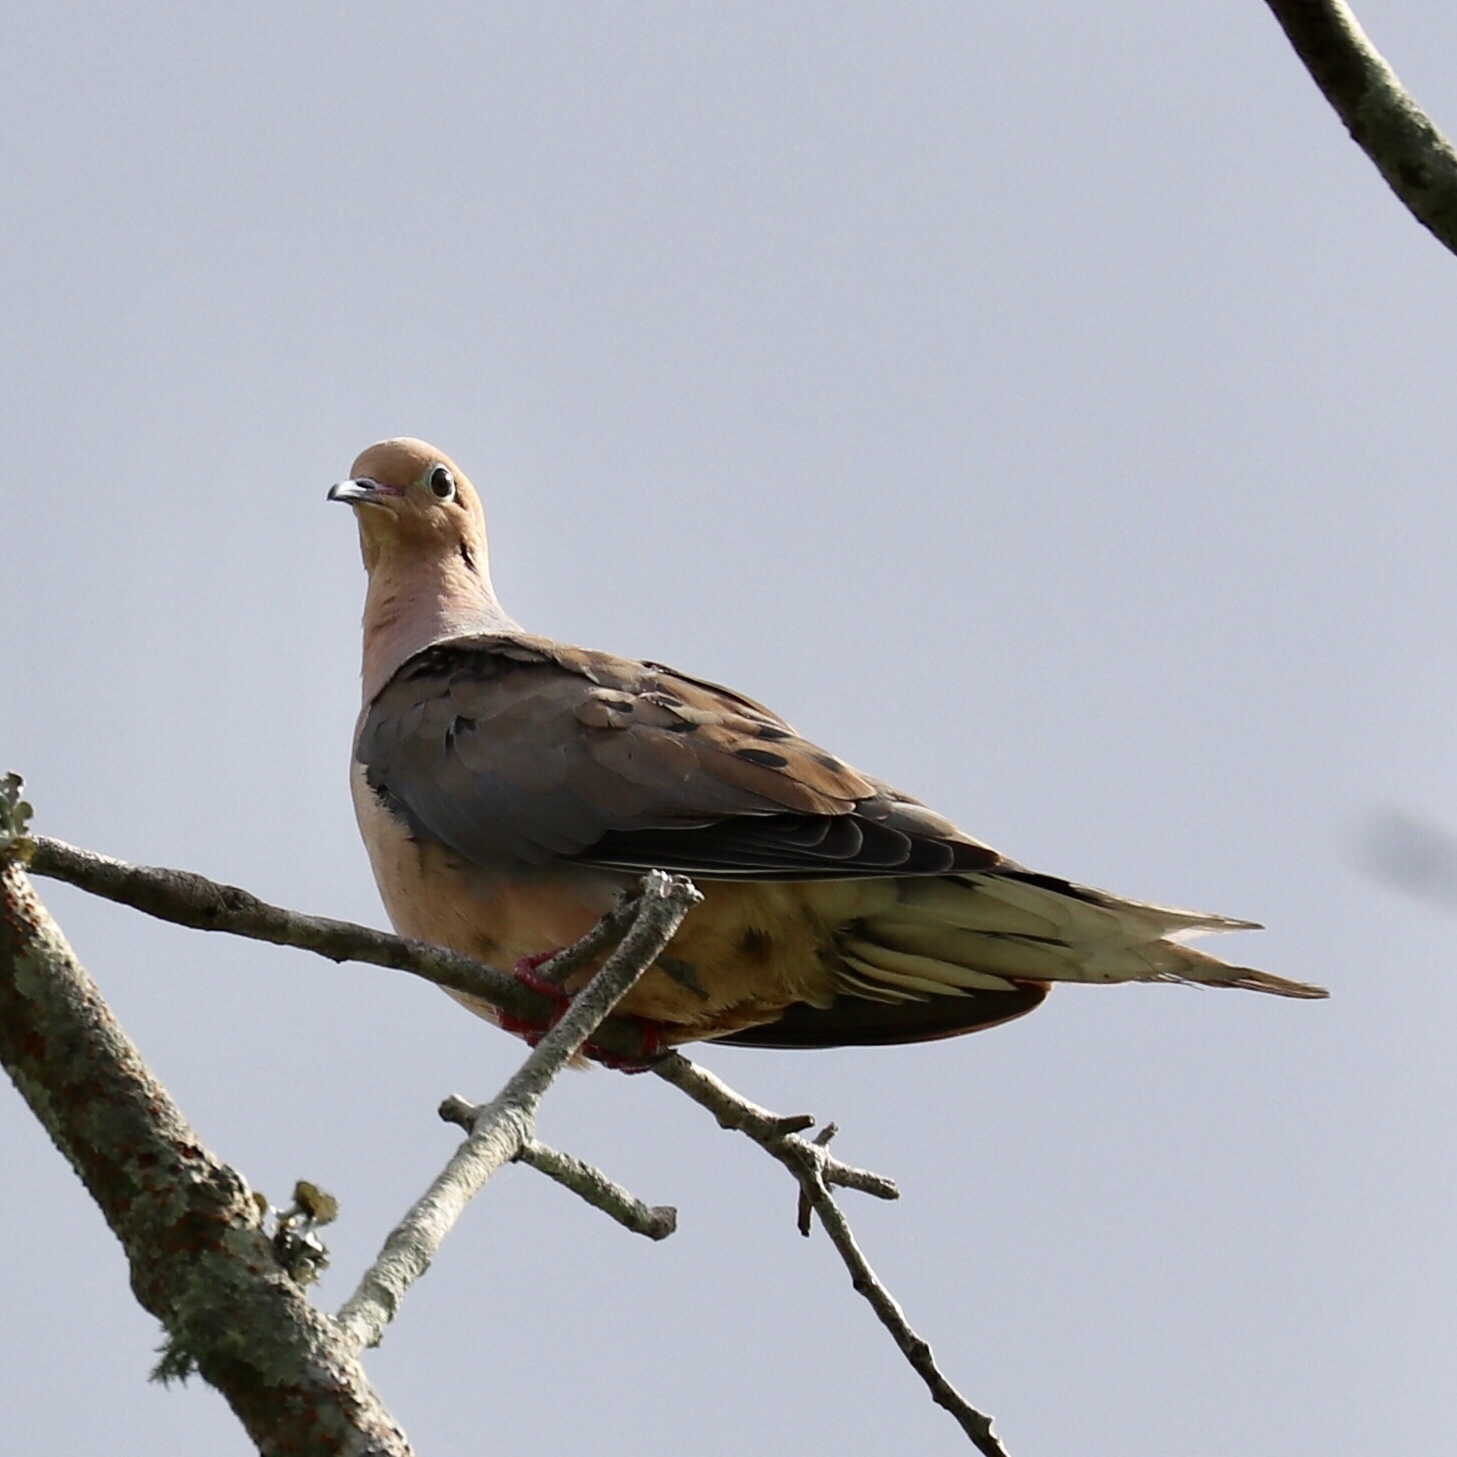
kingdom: Animalia
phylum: Chordata
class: Aves
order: Columbiformes
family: Columbidae
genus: Zenaida
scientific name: Zenaida macroura
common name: Mourning dove
